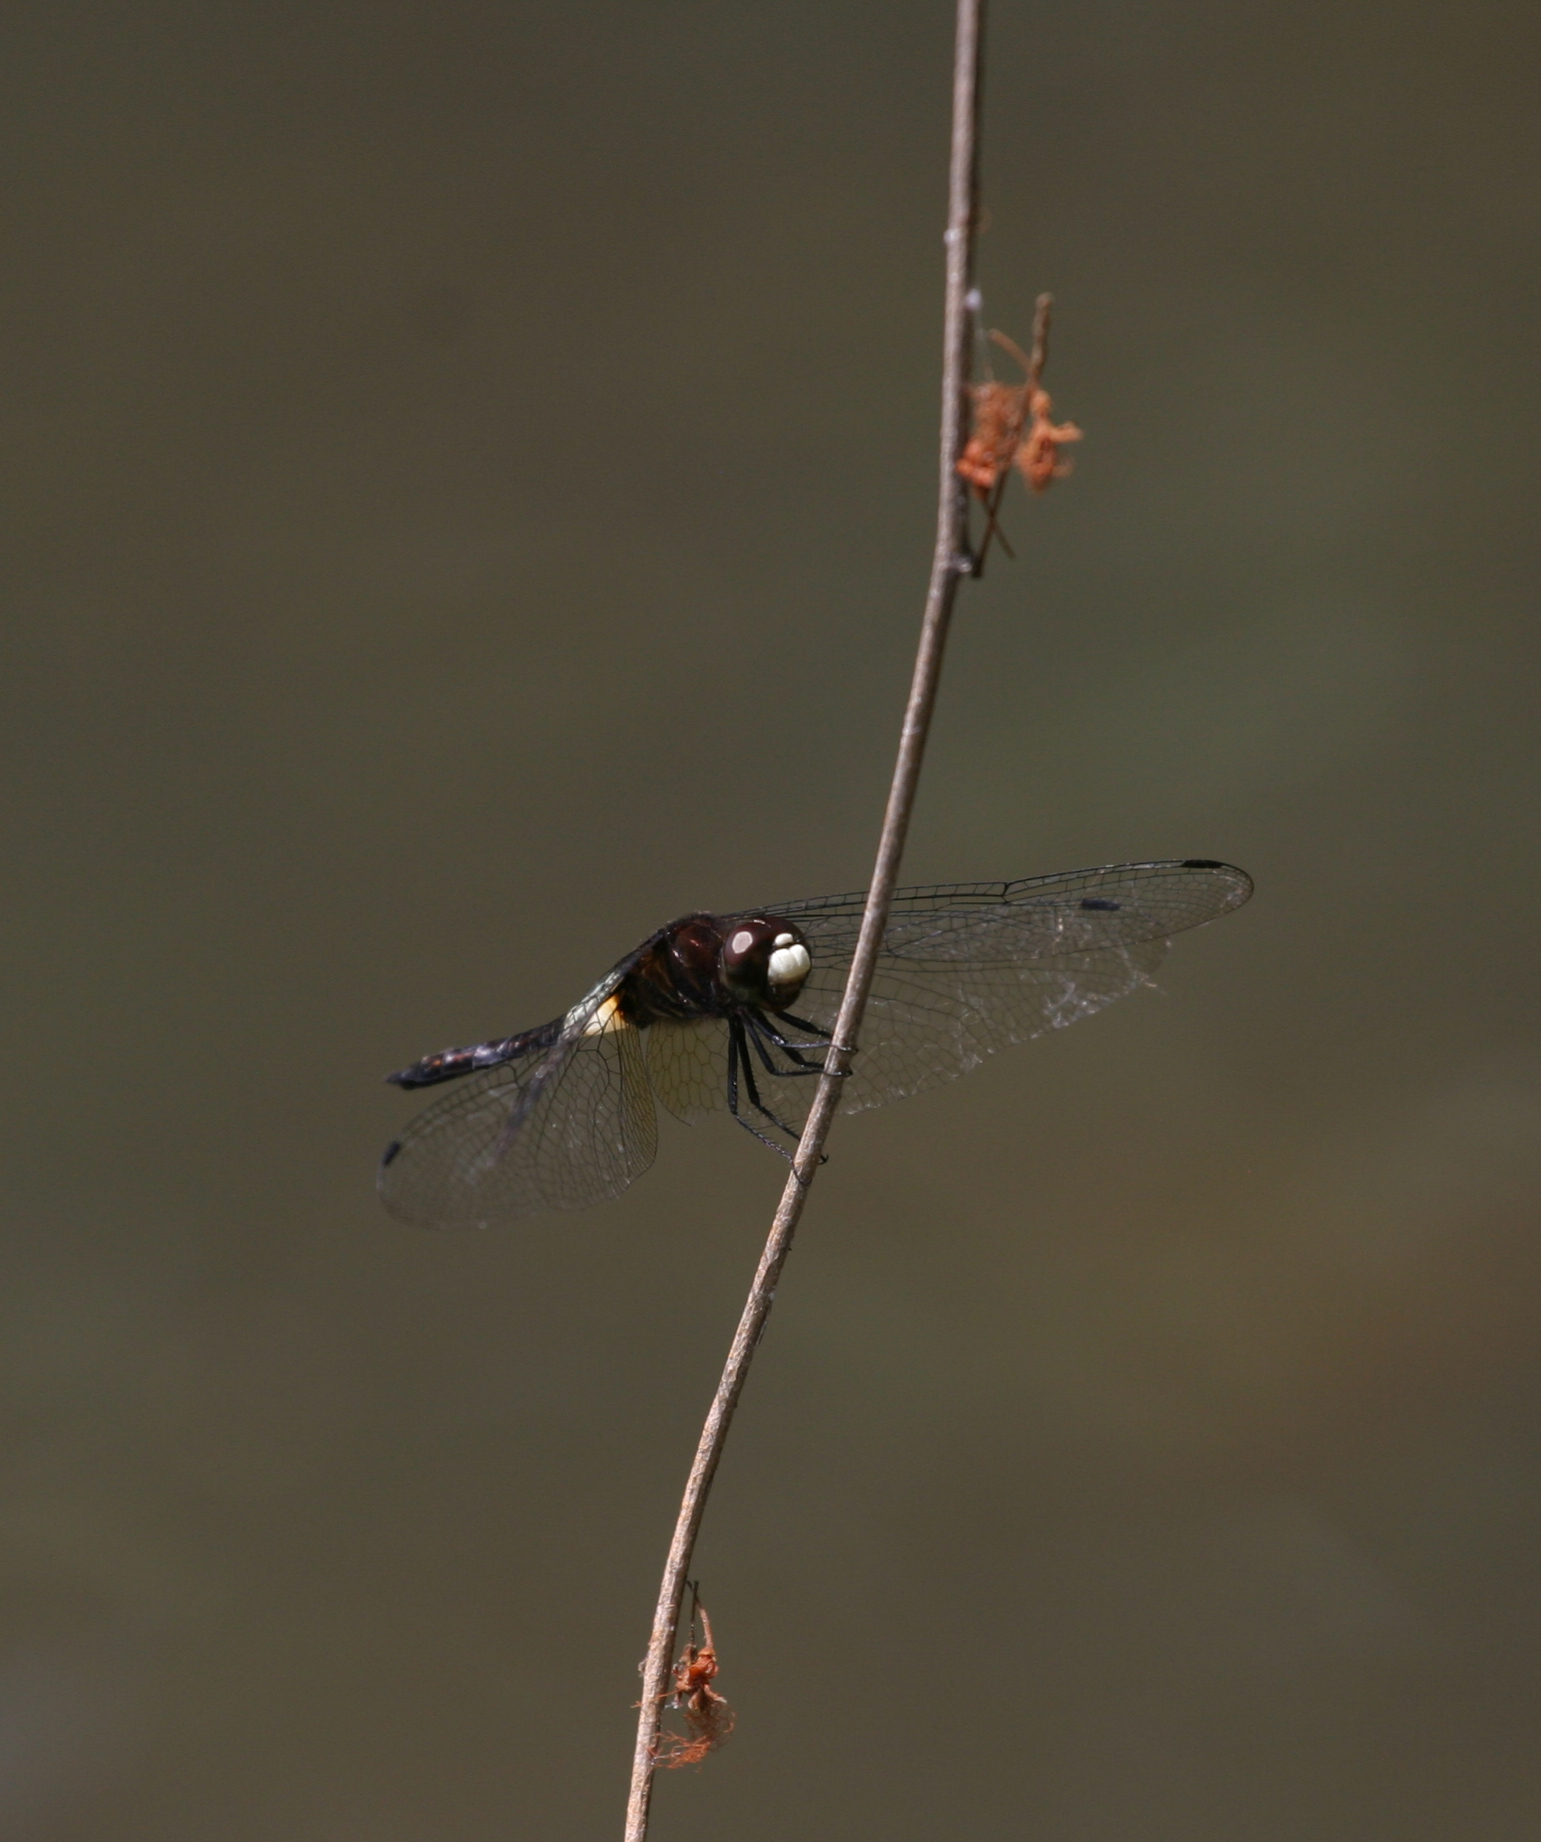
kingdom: Animalia
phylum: Arthropoda
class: Insecta
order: Odonata
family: Libellulidae
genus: Pseudothemis
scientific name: Pseudothemis jorina
